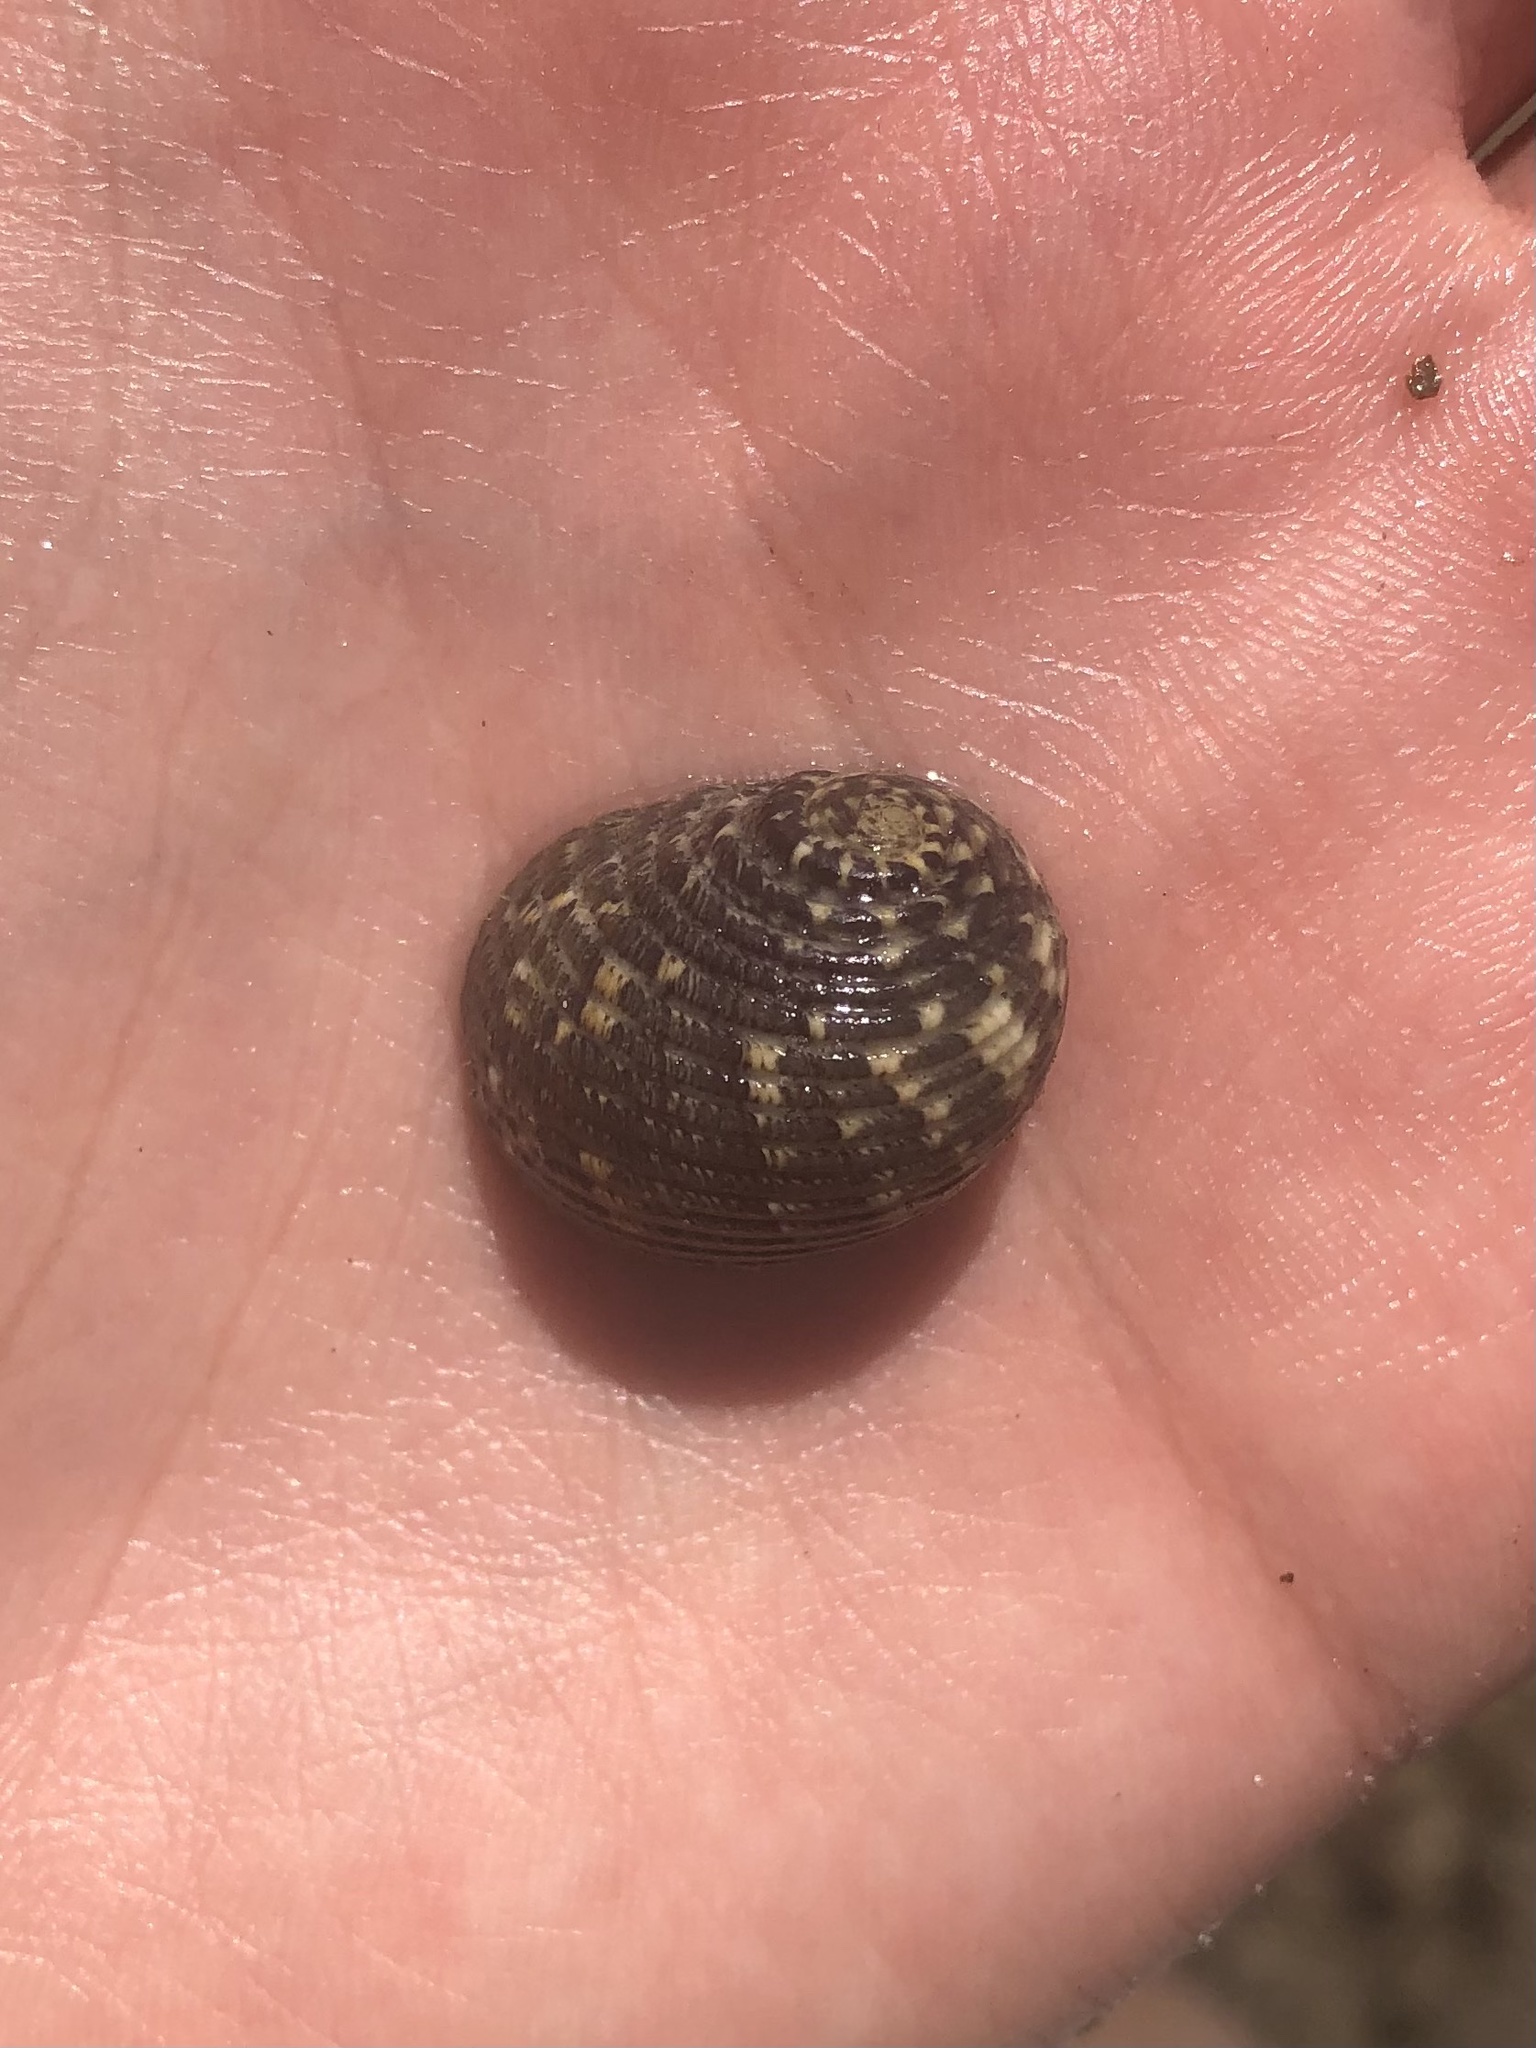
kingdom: Animalia
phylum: Mollusca
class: Gastropoda
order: Cycloneritida
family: Neritidae
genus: Nerita
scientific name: Nerita fulgurans
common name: Antillean nerite
